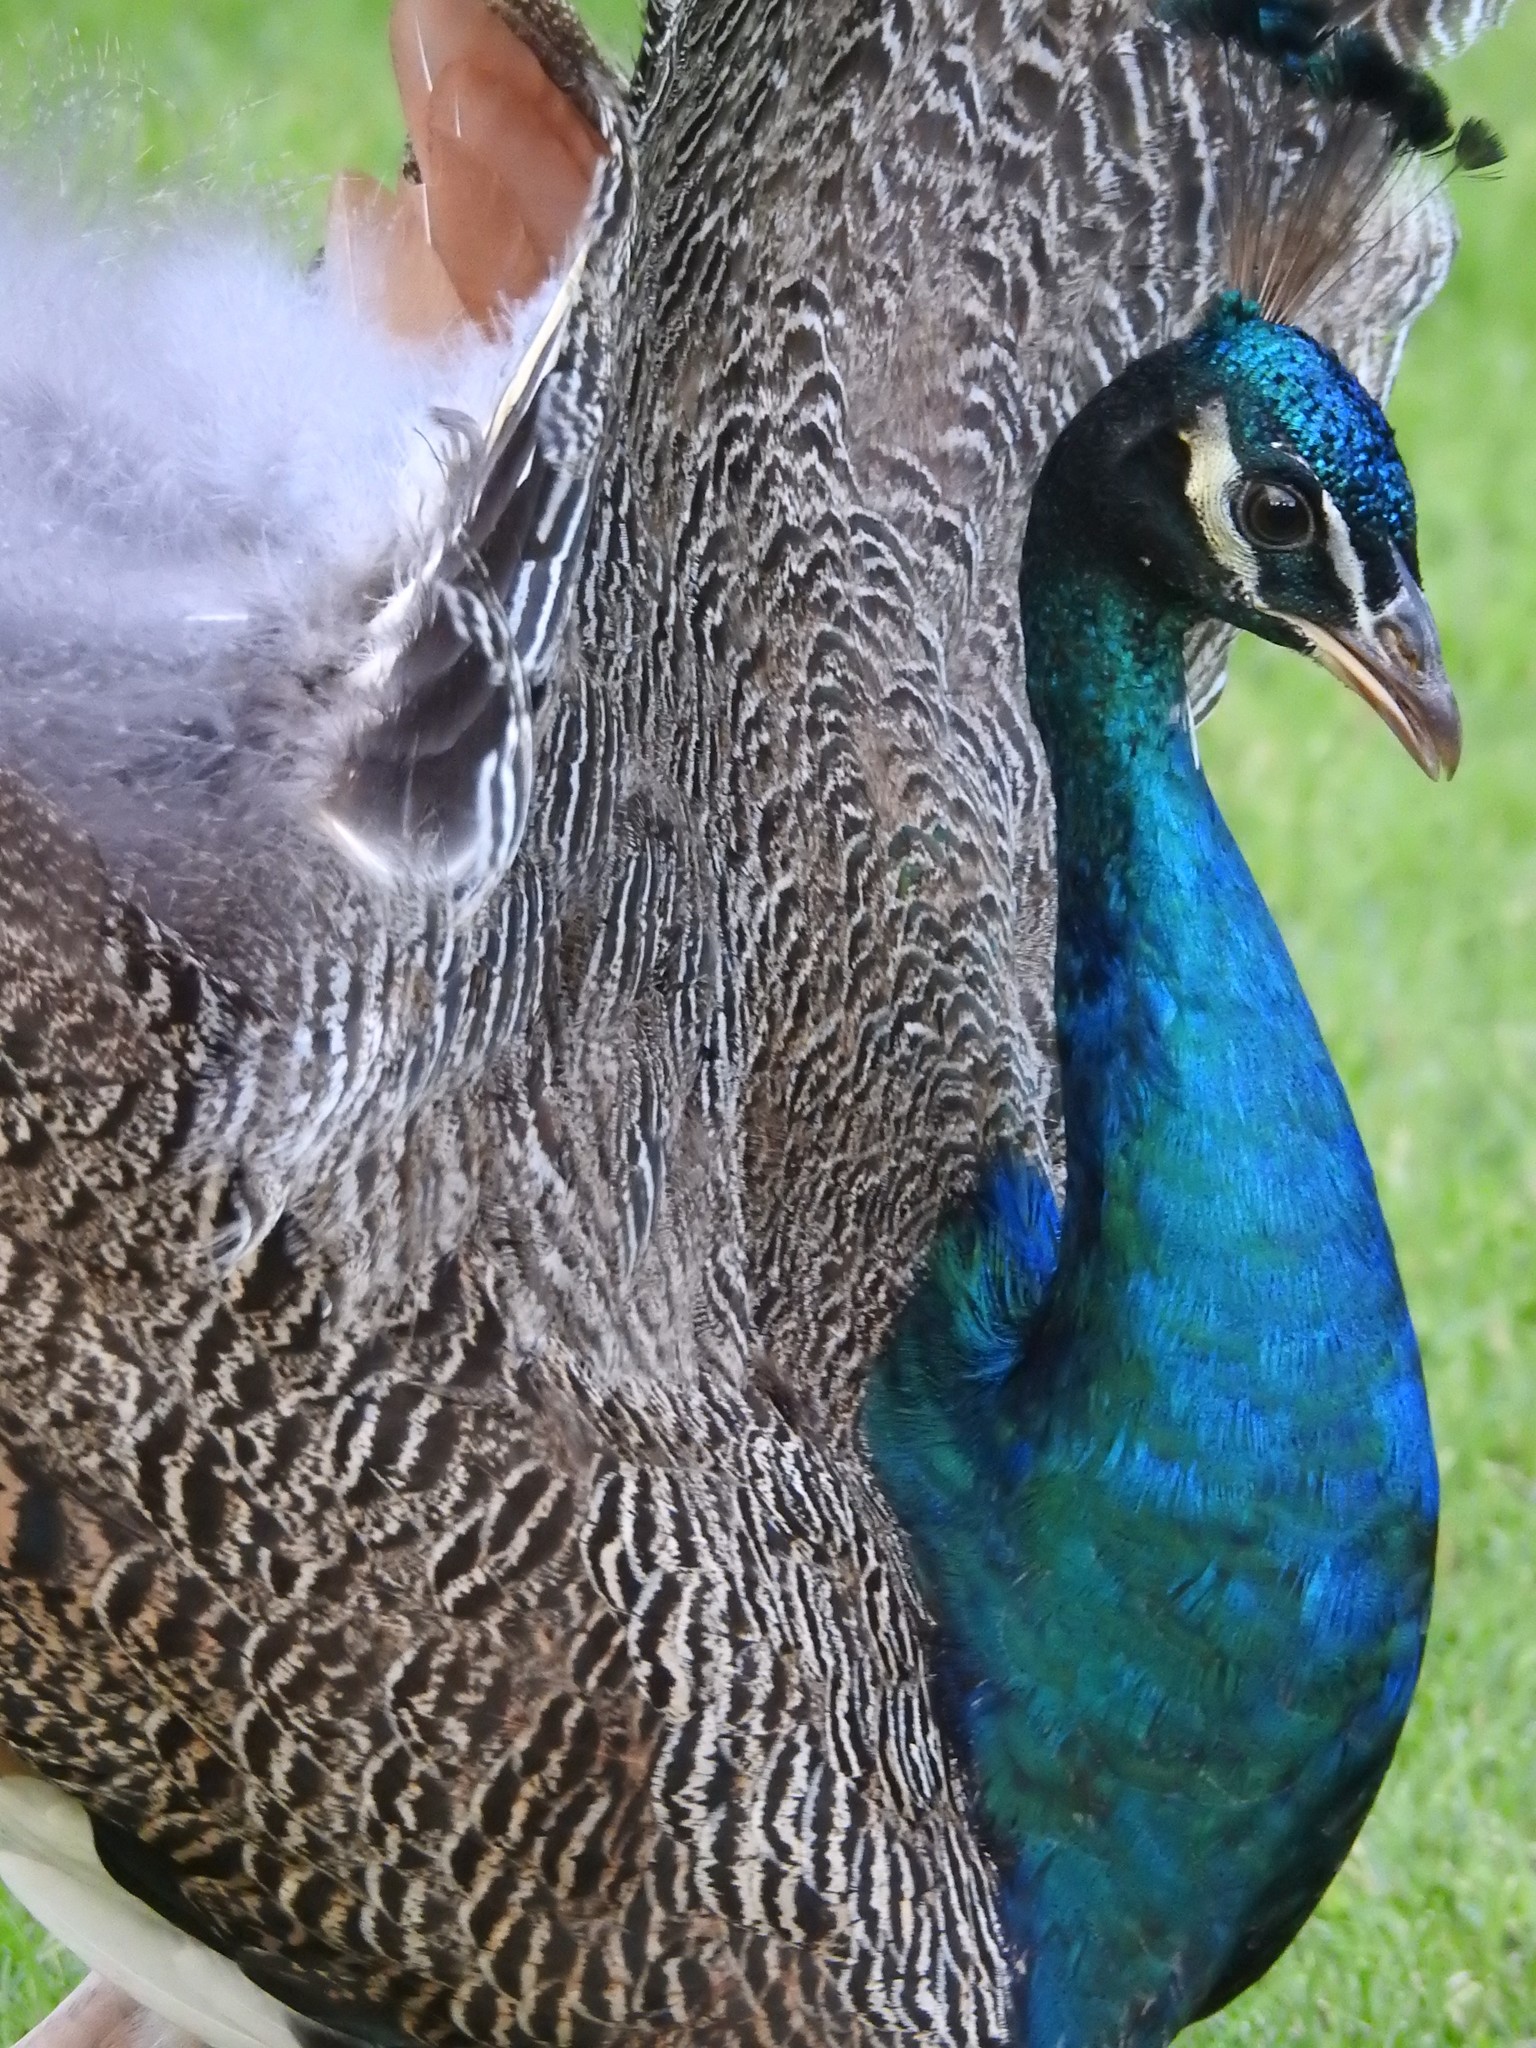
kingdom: Animalia
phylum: Chordata
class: Aves
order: Galliformes
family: Phasianidae
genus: Pavo
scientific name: Pavo cristatus
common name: Indian peafowl
